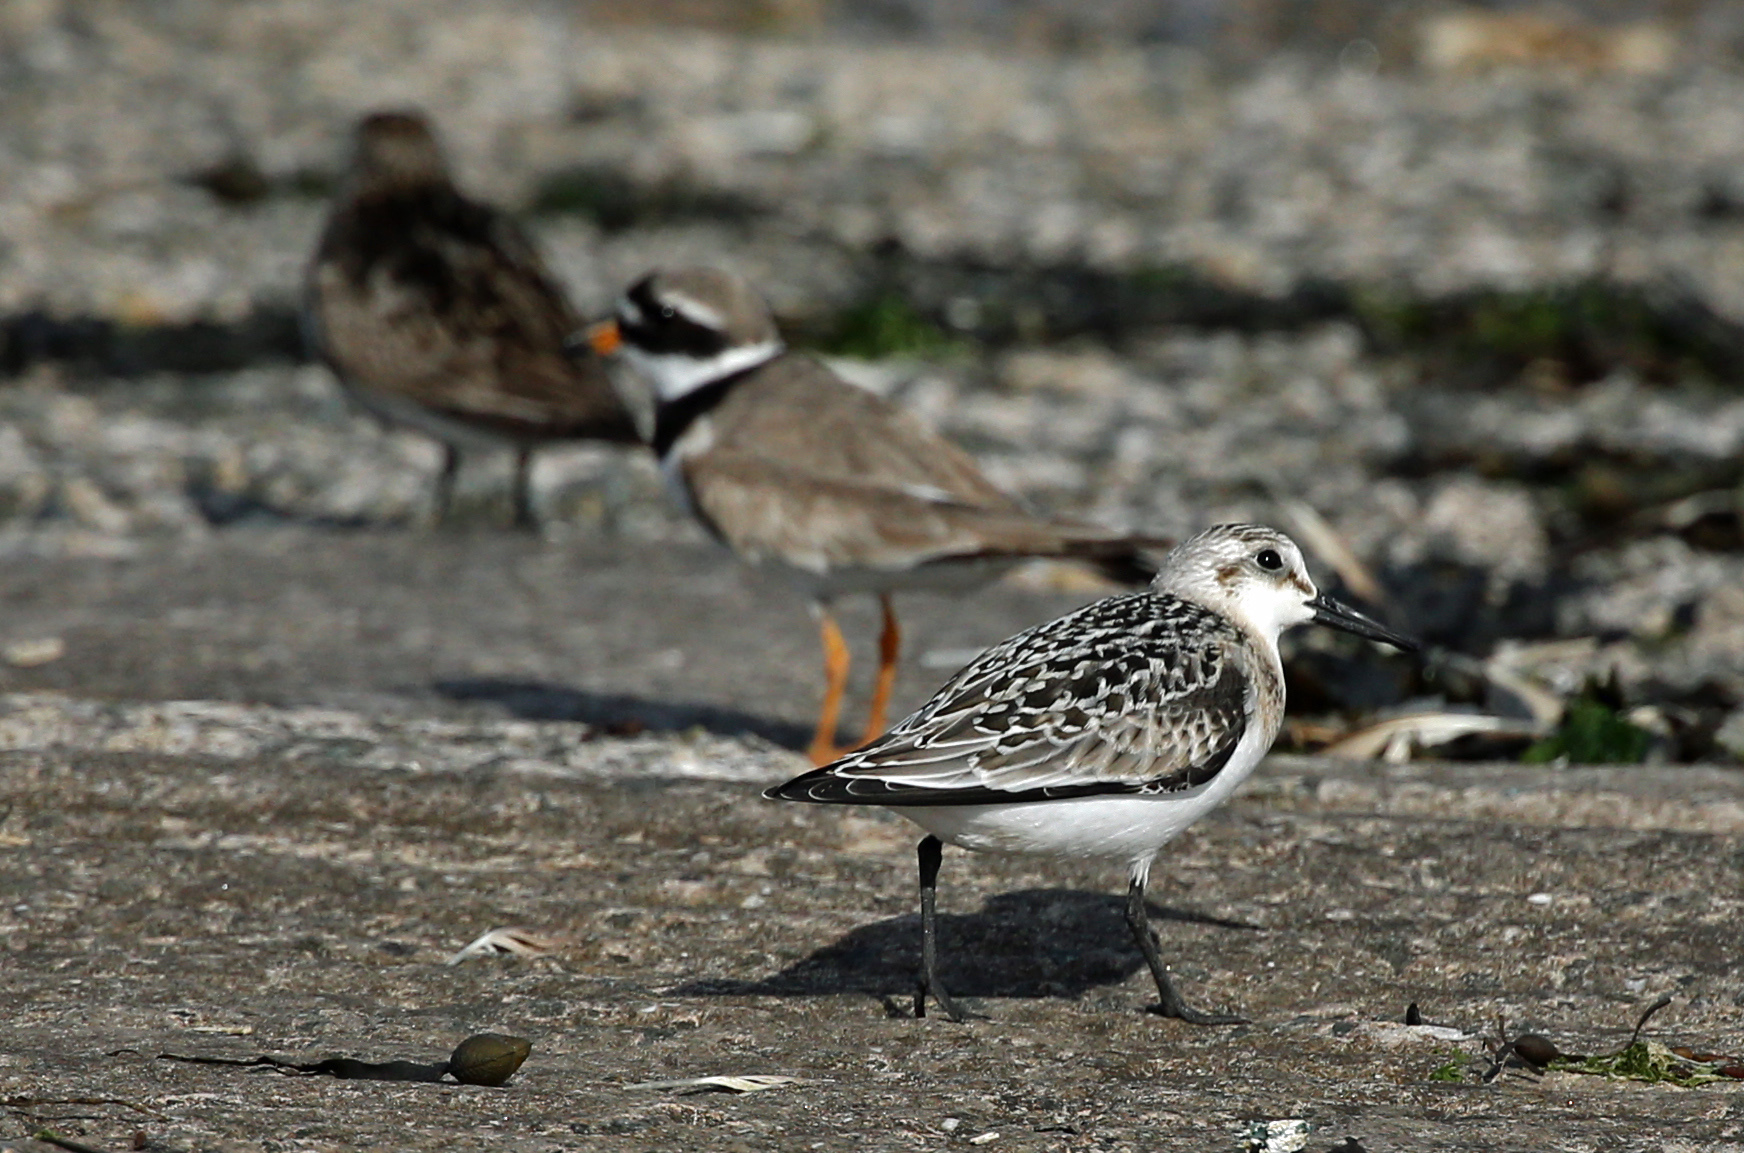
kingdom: Animalia
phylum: Chordata
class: Aves
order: Charadriiformes
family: Scolopacidae
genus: Calidris
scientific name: Calidris alba
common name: Sanderling
